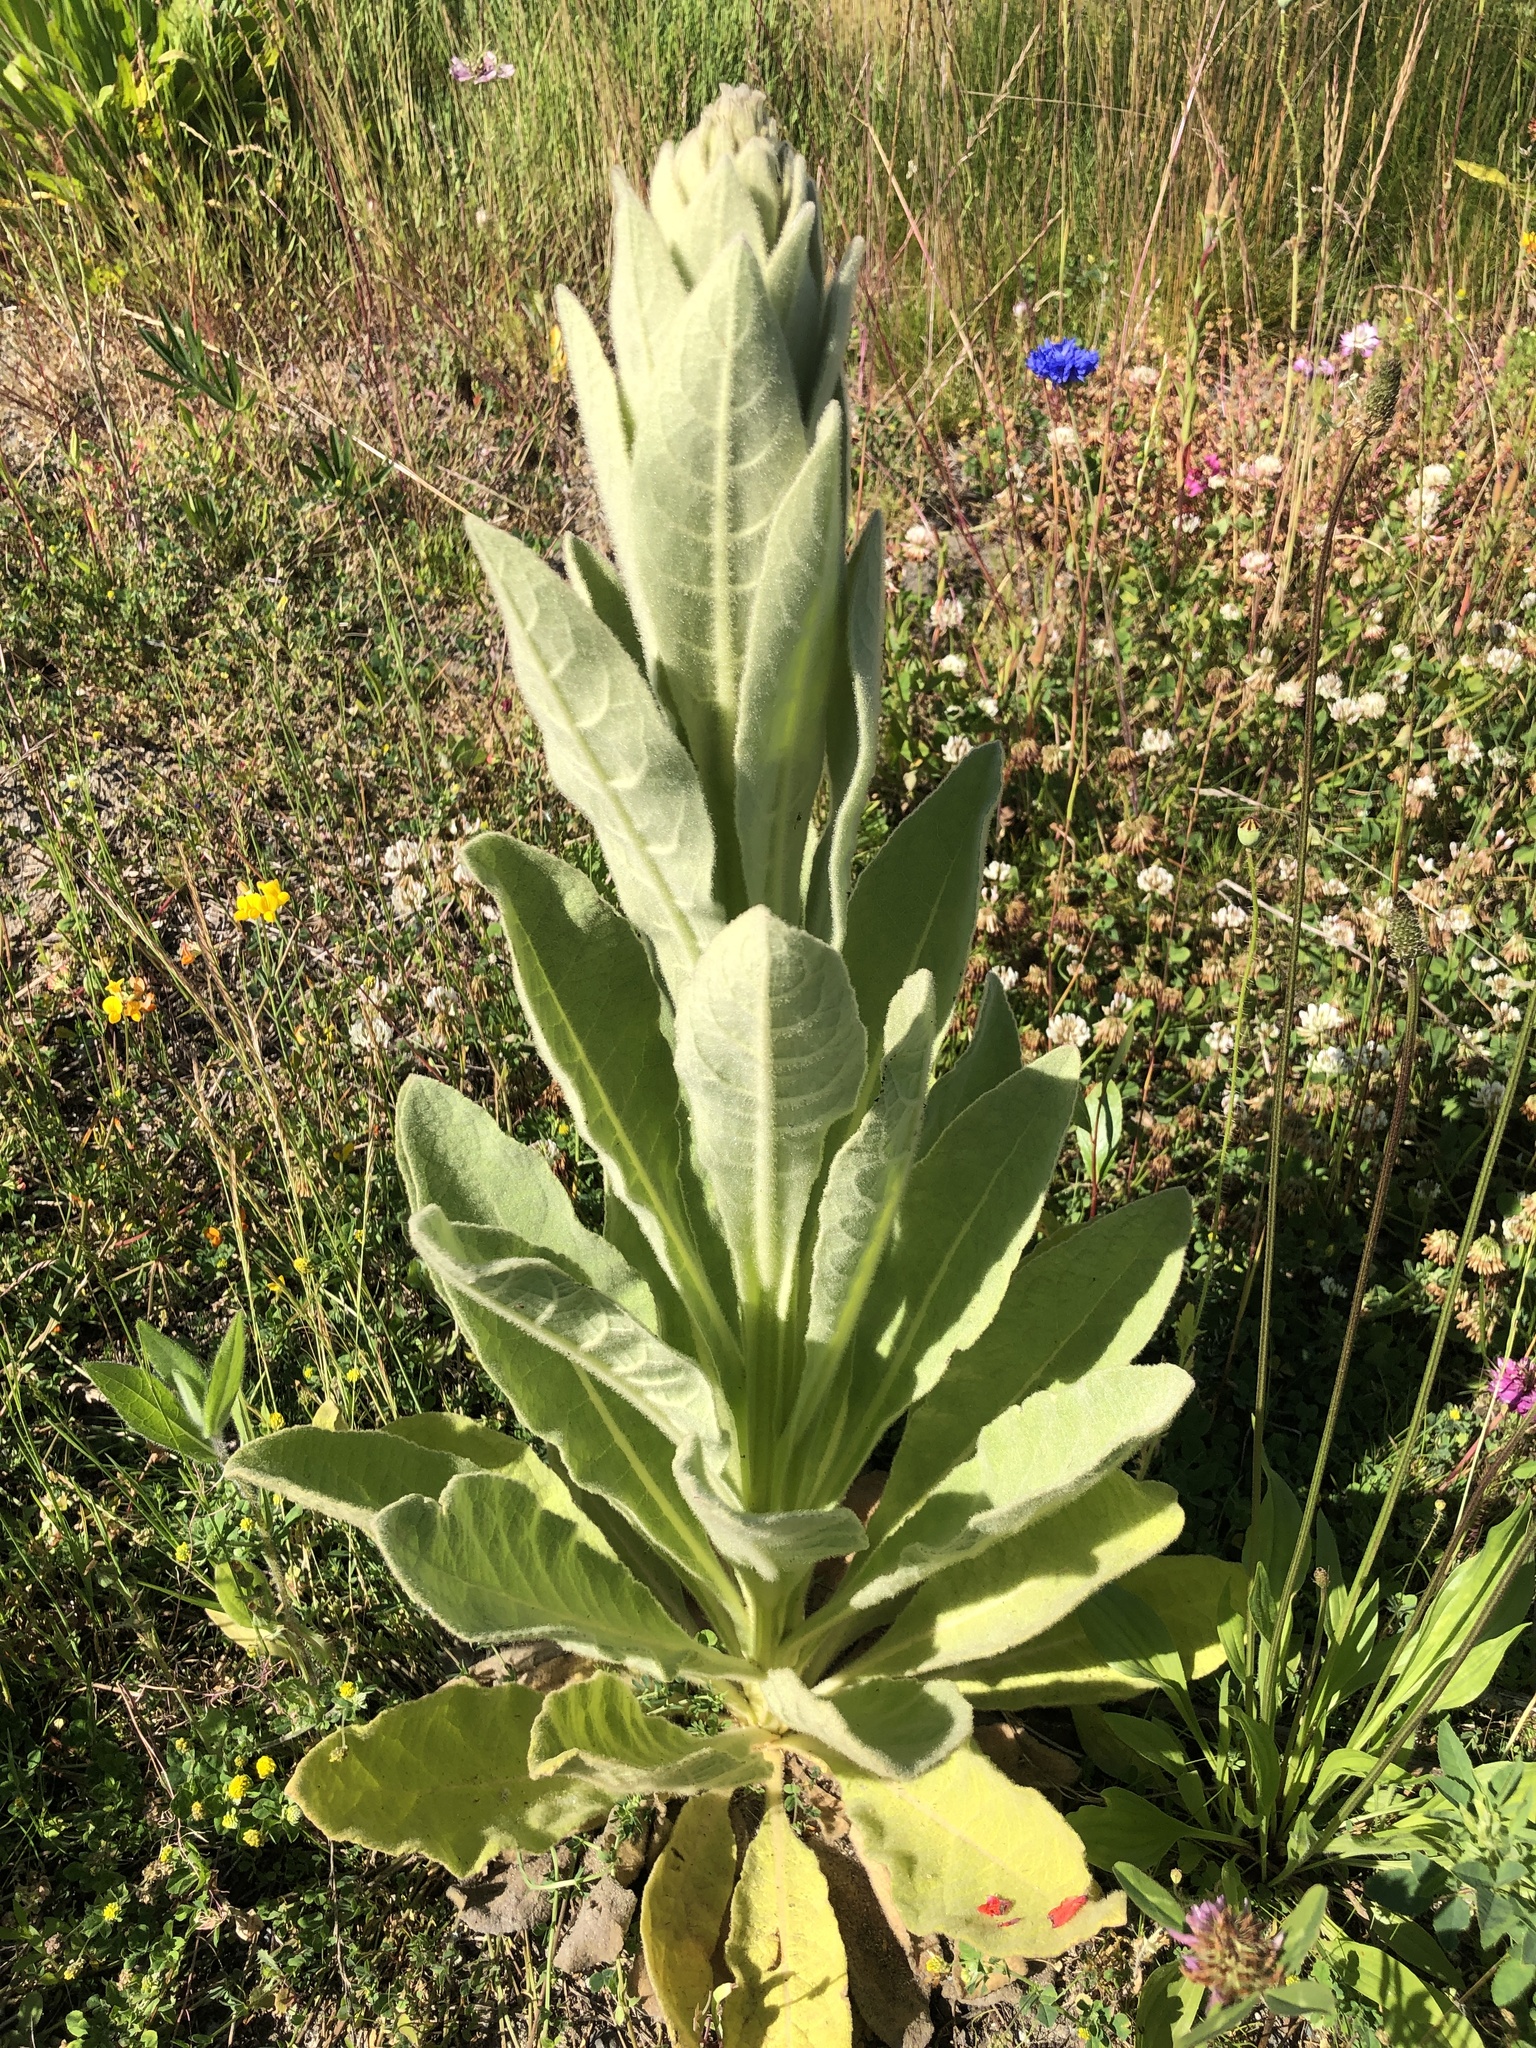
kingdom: Plantae
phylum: Tracheophyta
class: Magnoliopsida
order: Lamiales
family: Scrophulariaceae
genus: Verbascum
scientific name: Verbascum thapsus
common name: Common mullein
